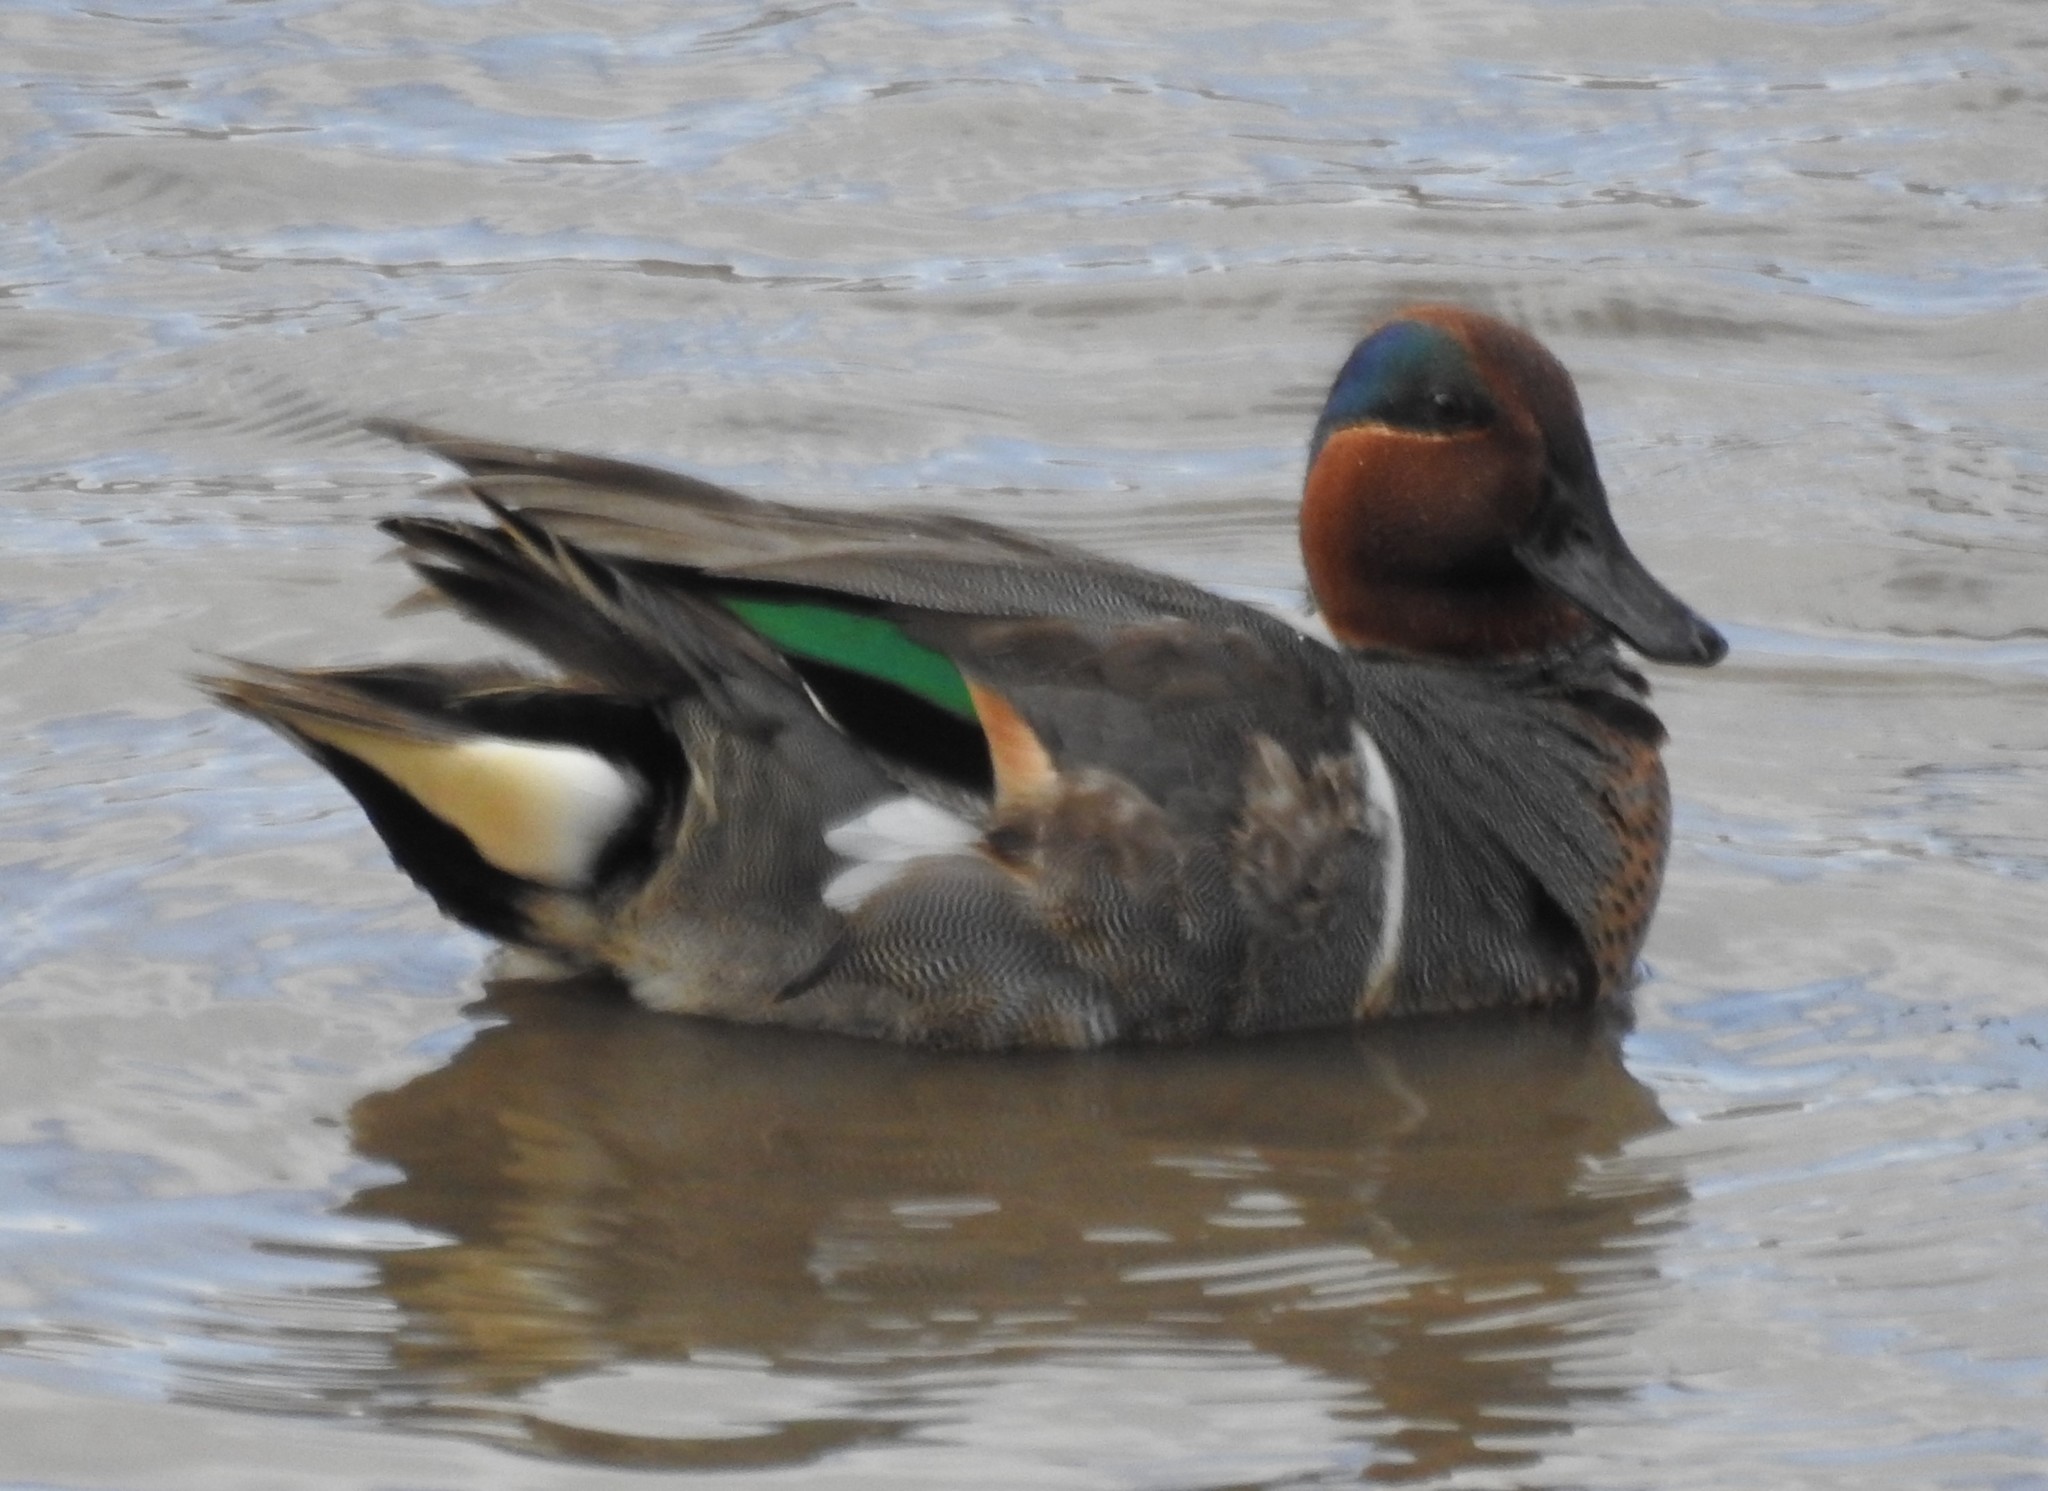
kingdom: Animalia
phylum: Chordata
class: Aves
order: Anseriformes
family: Anatidae
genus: Anas
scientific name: Anas carolinensis
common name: Green-winged teal
